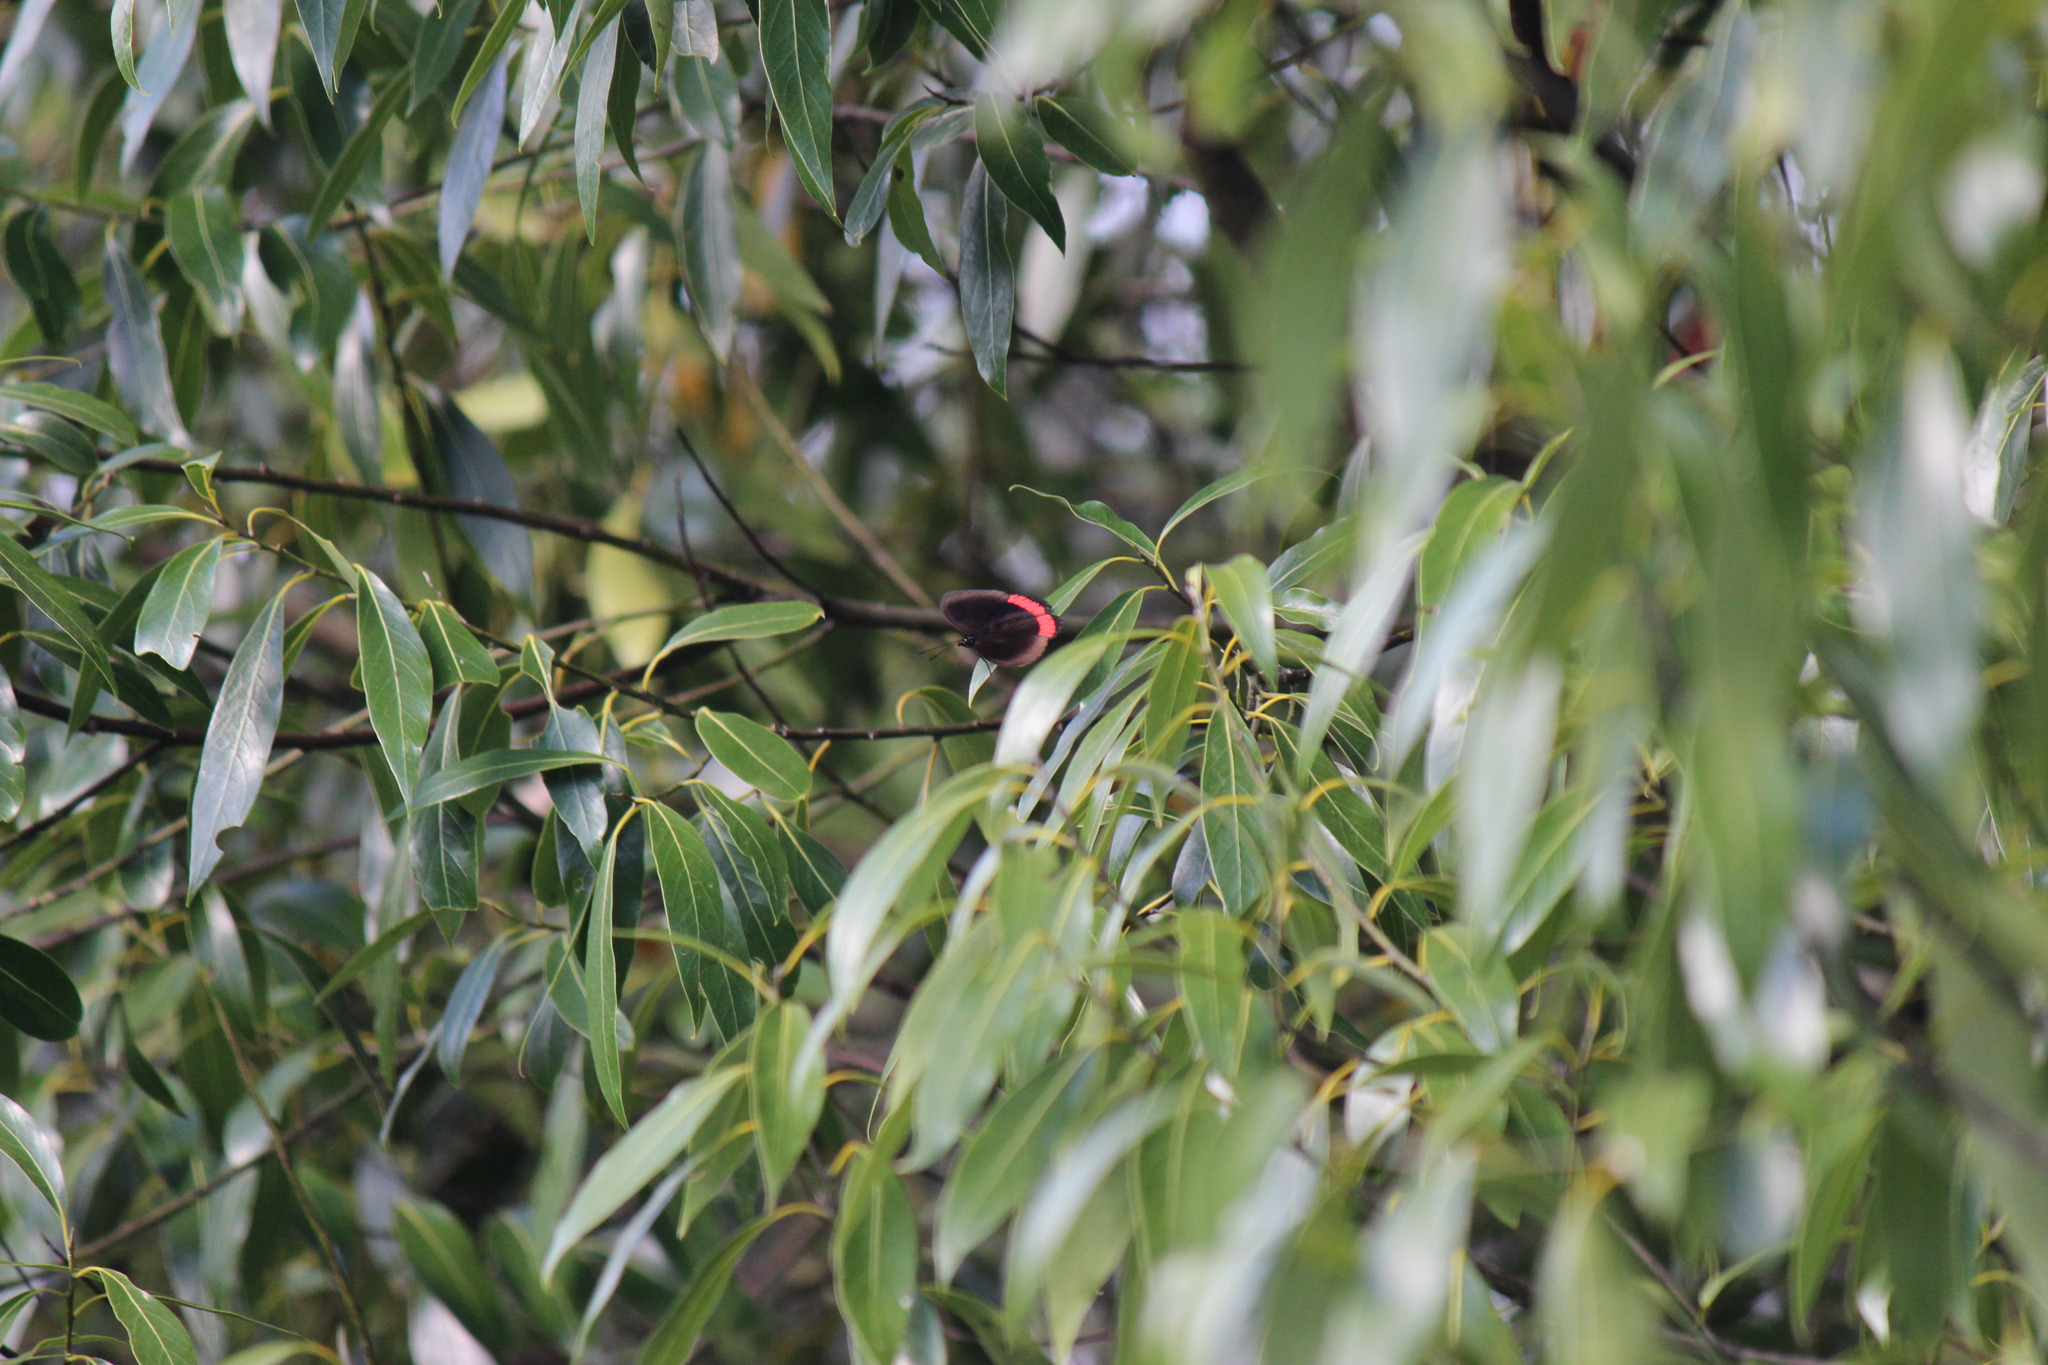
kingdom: Animalia
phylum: Arthropoda
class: Insecta
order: Lepidoptera
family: Sesiidae
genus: Sesia
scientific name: Sesia Biblis hyperia
